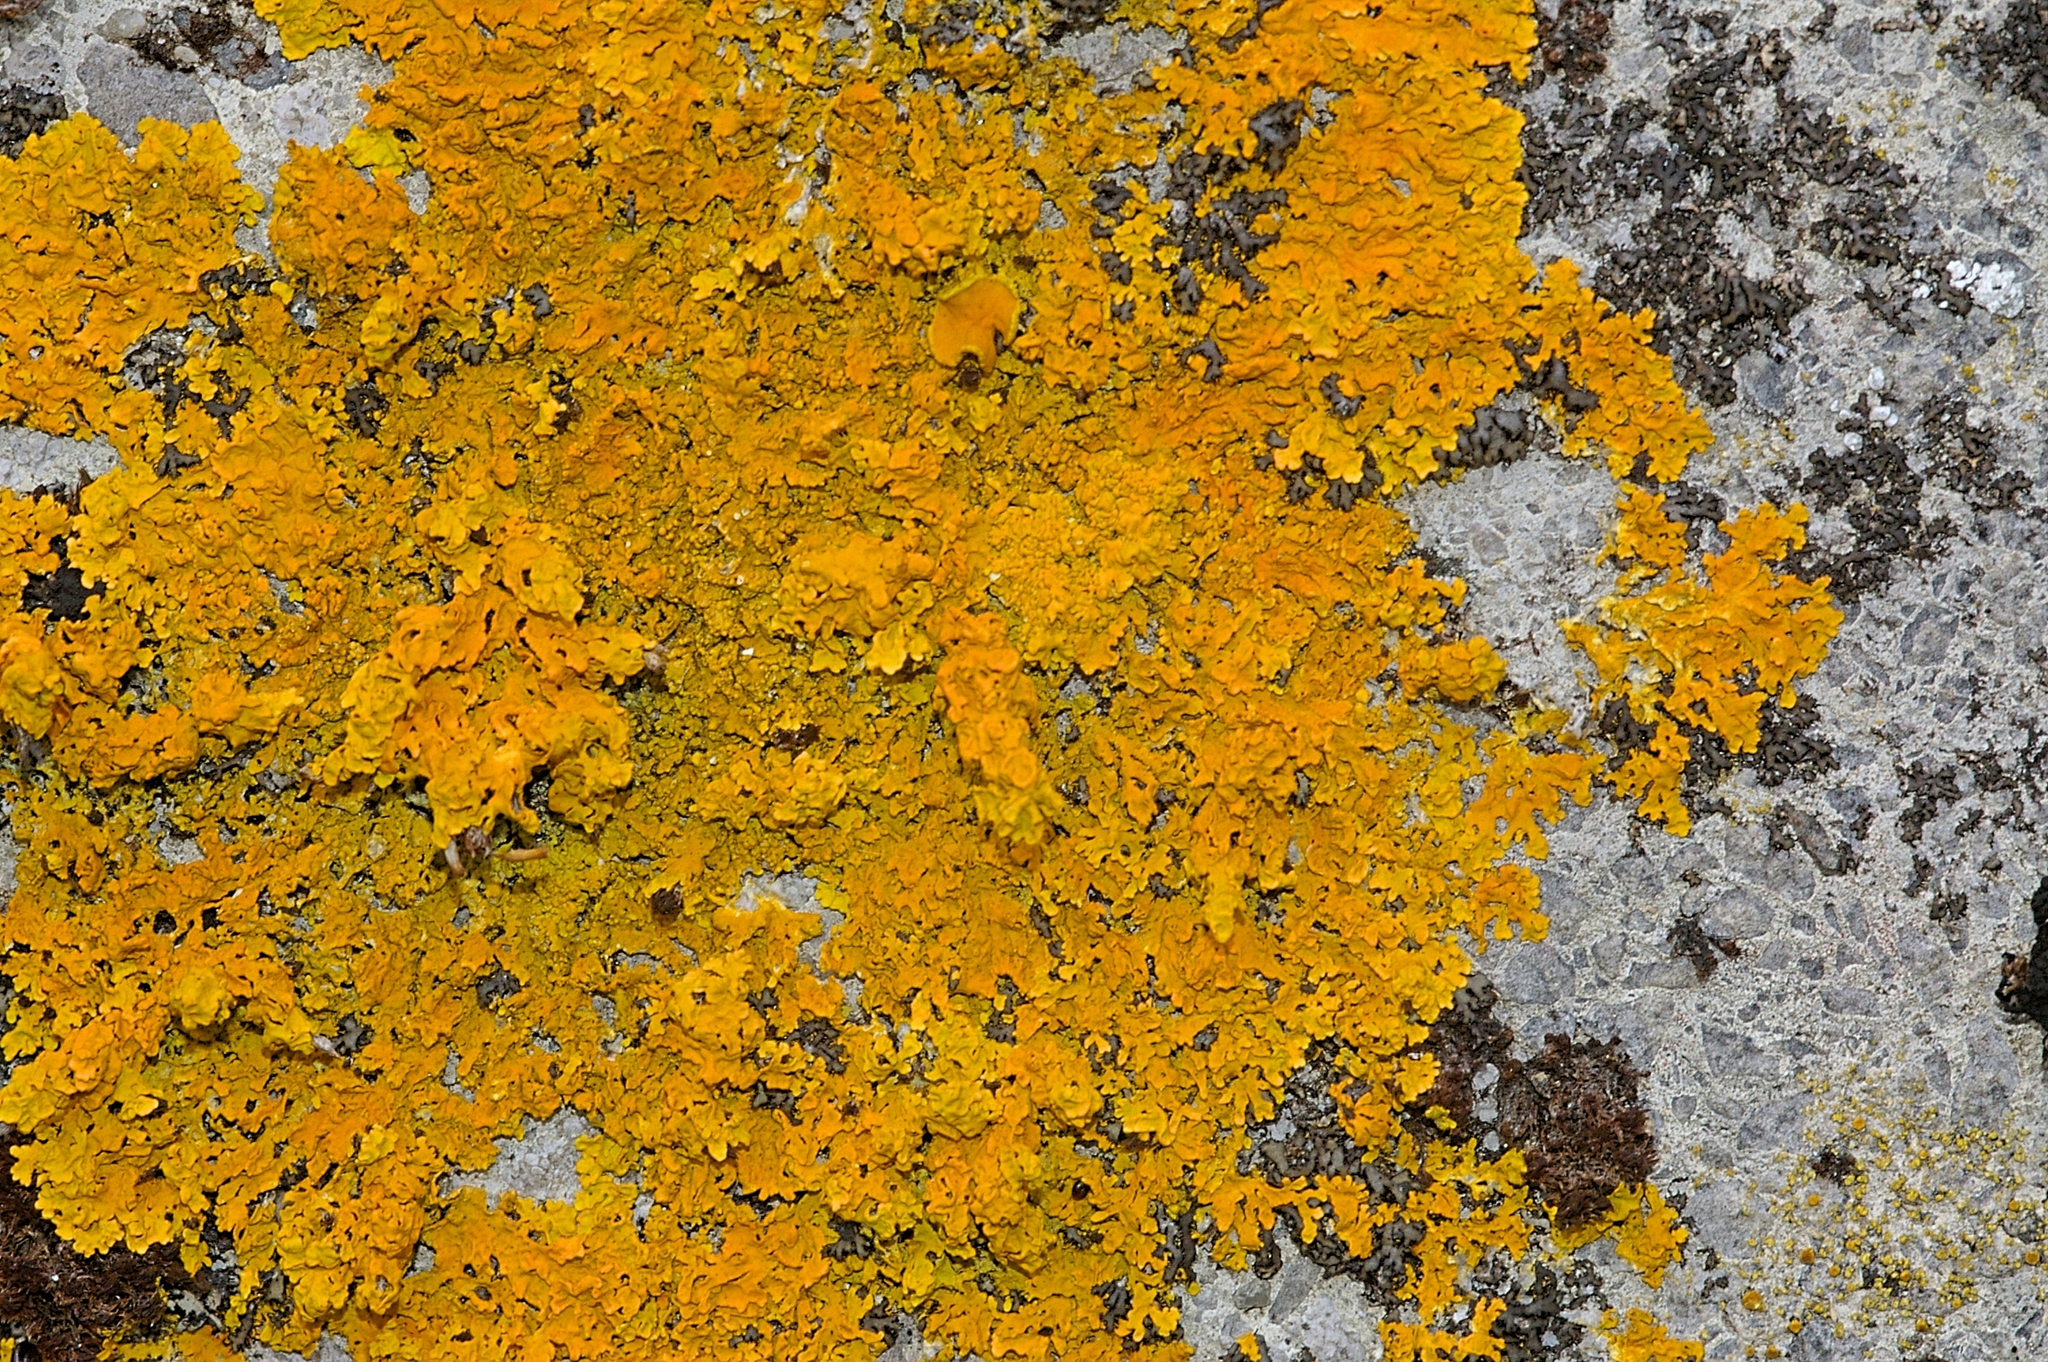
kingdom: Fungi
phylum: Ascomycota
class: Lecanoromycetes
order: Teloschistales
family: Teloschistaceae
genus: Xanthoria
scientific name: Xanthoria calcicola
